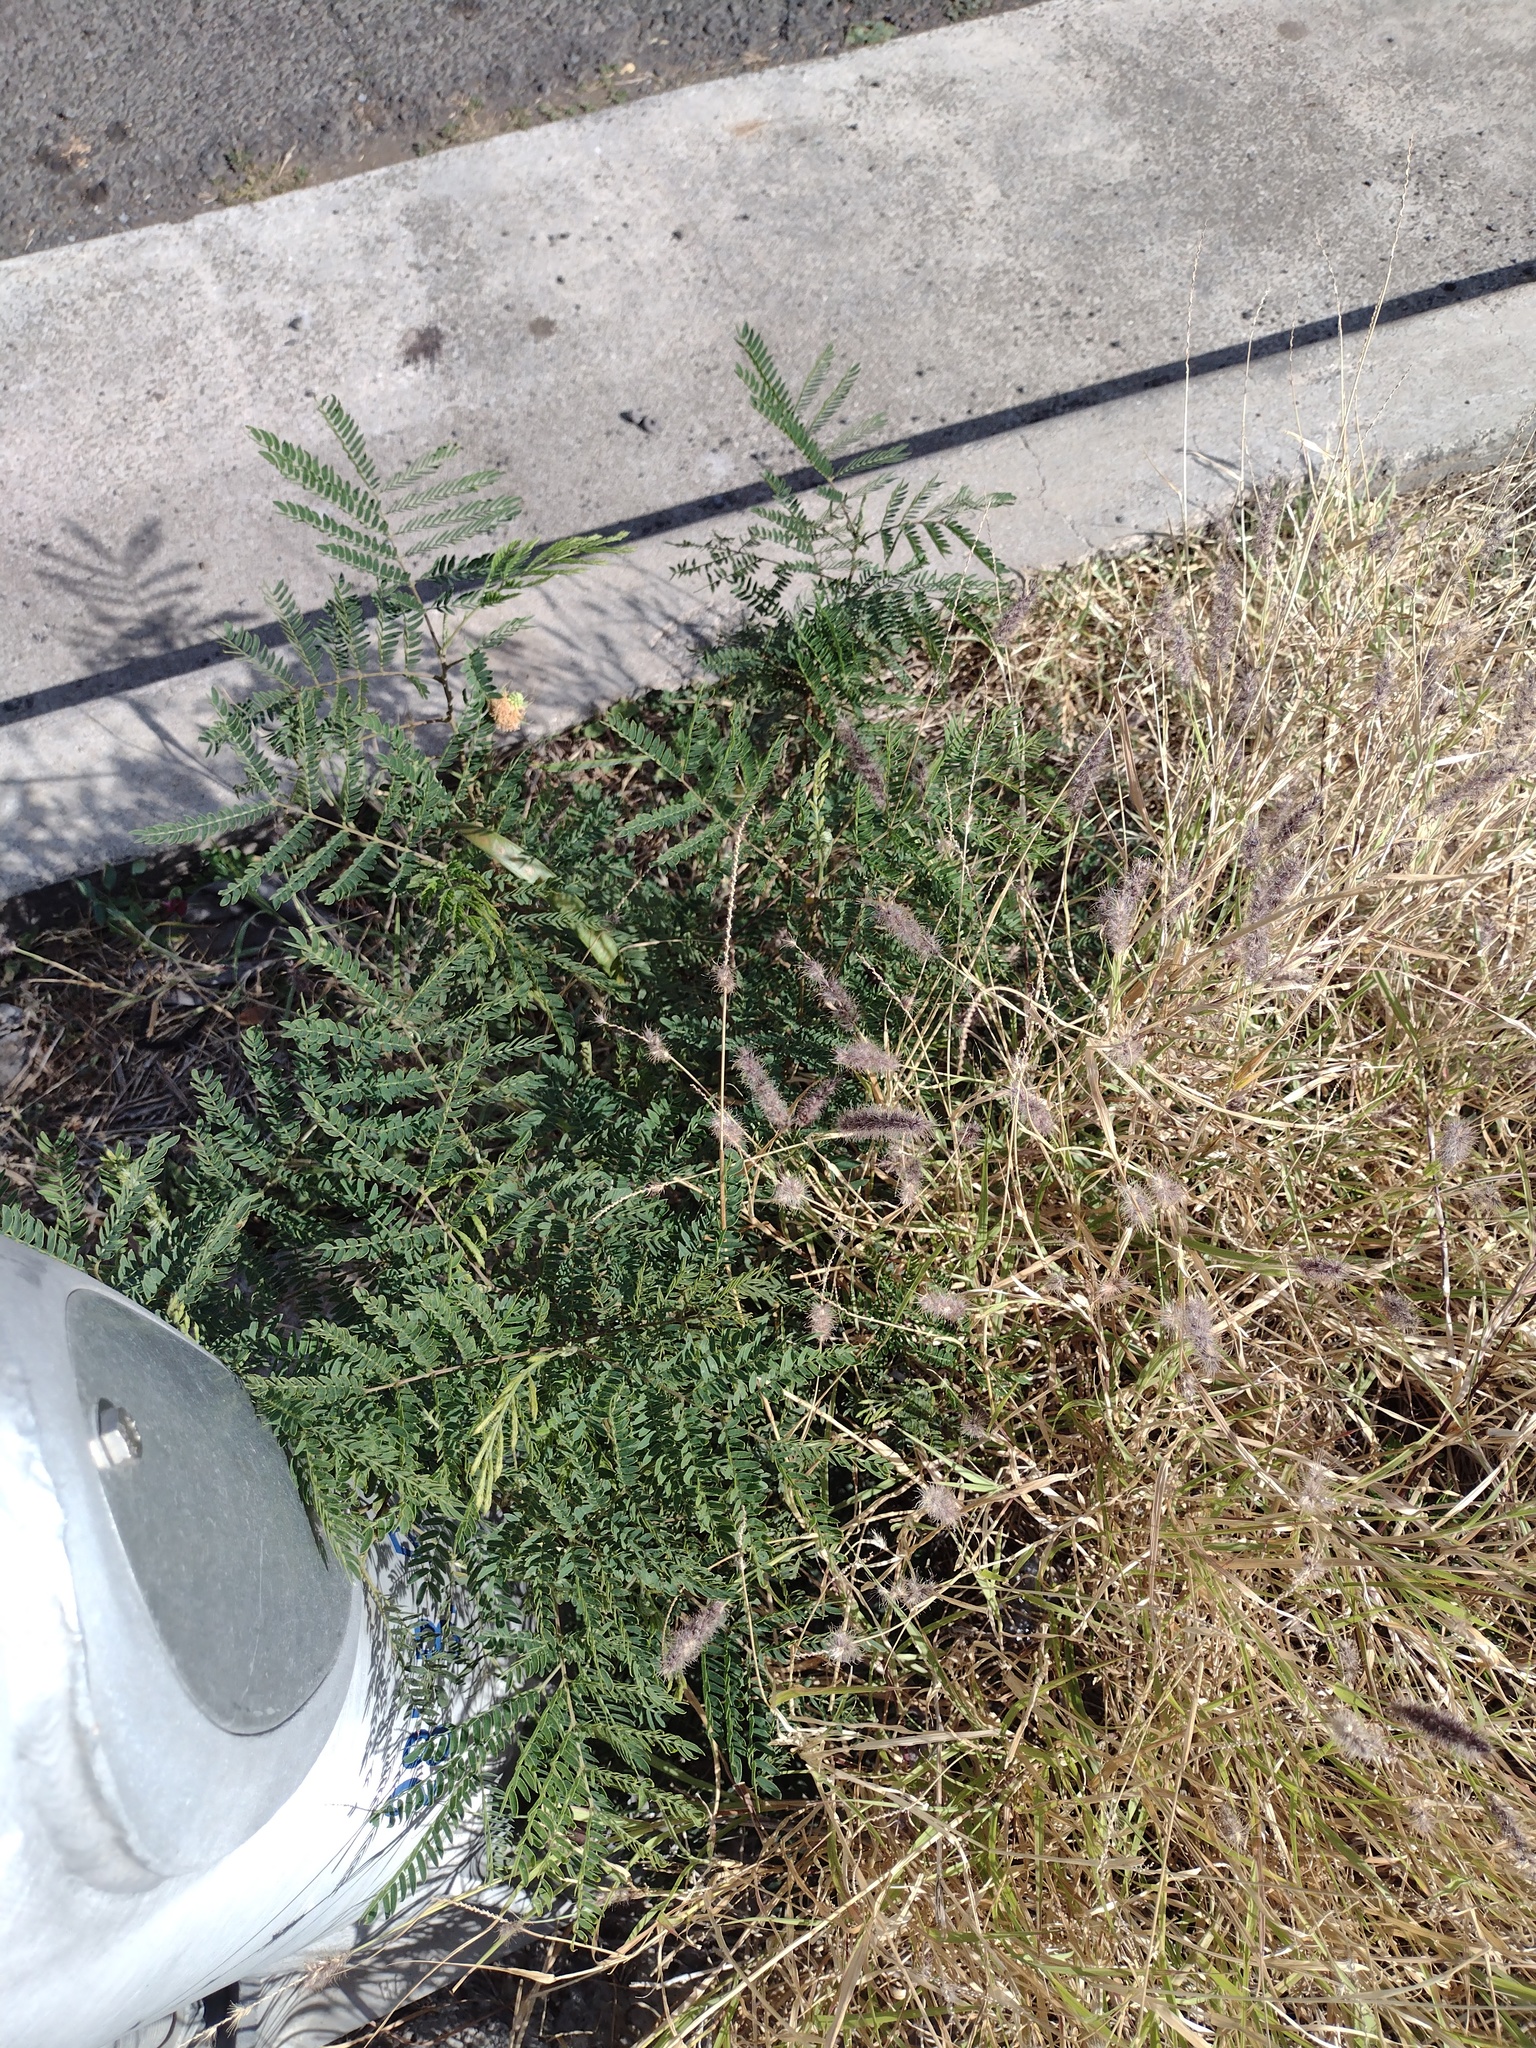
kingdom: Plantae
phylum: Tracheophyta
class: Magnoliopsida
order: Fabales
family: Fabaceae
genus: Leucaena
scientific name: Leucaena leucocephala
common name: White leadtree
